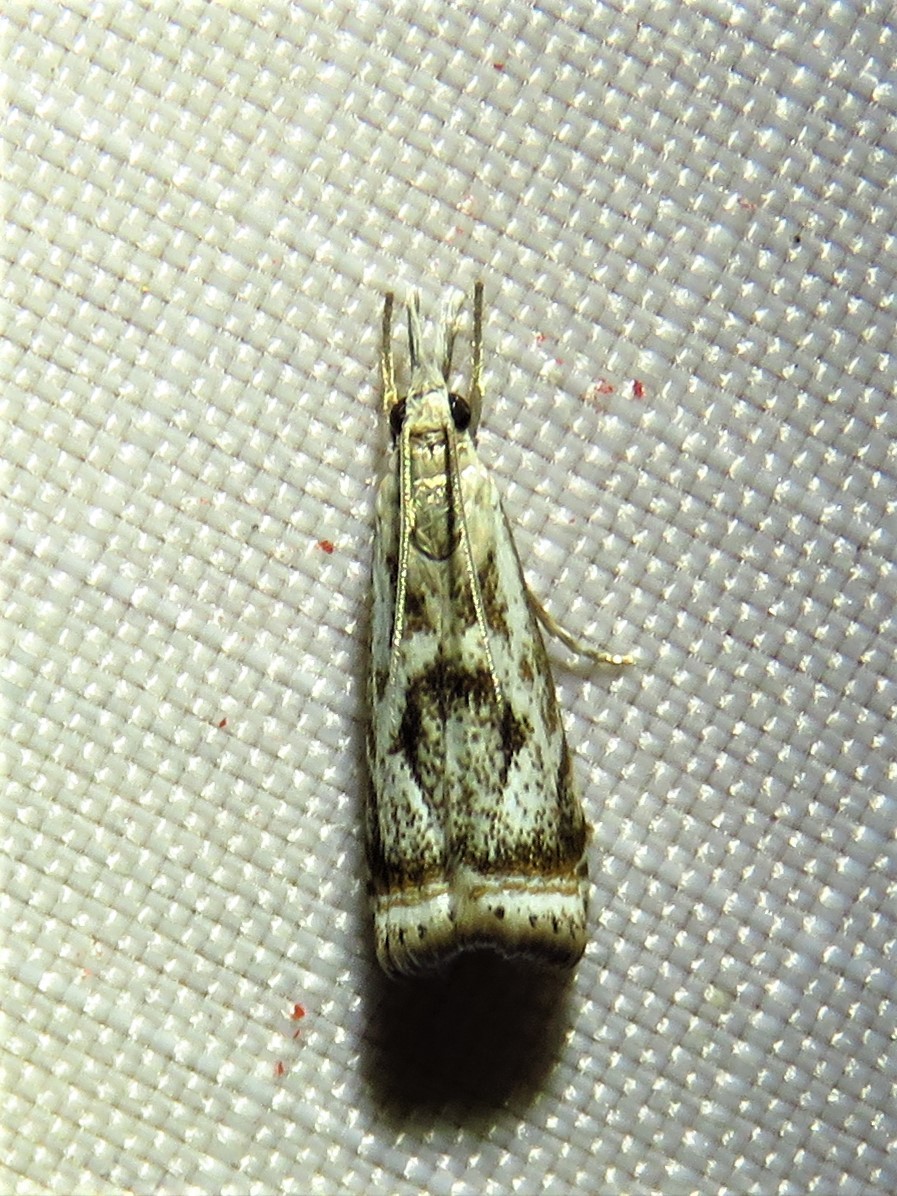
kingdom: Animalia
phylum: Arthropoda
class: Insecta
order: Lepidoptera
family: Crambidae
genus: Microcrambus
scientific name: Microcrambus elegans
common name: Elegant grass-veneer
